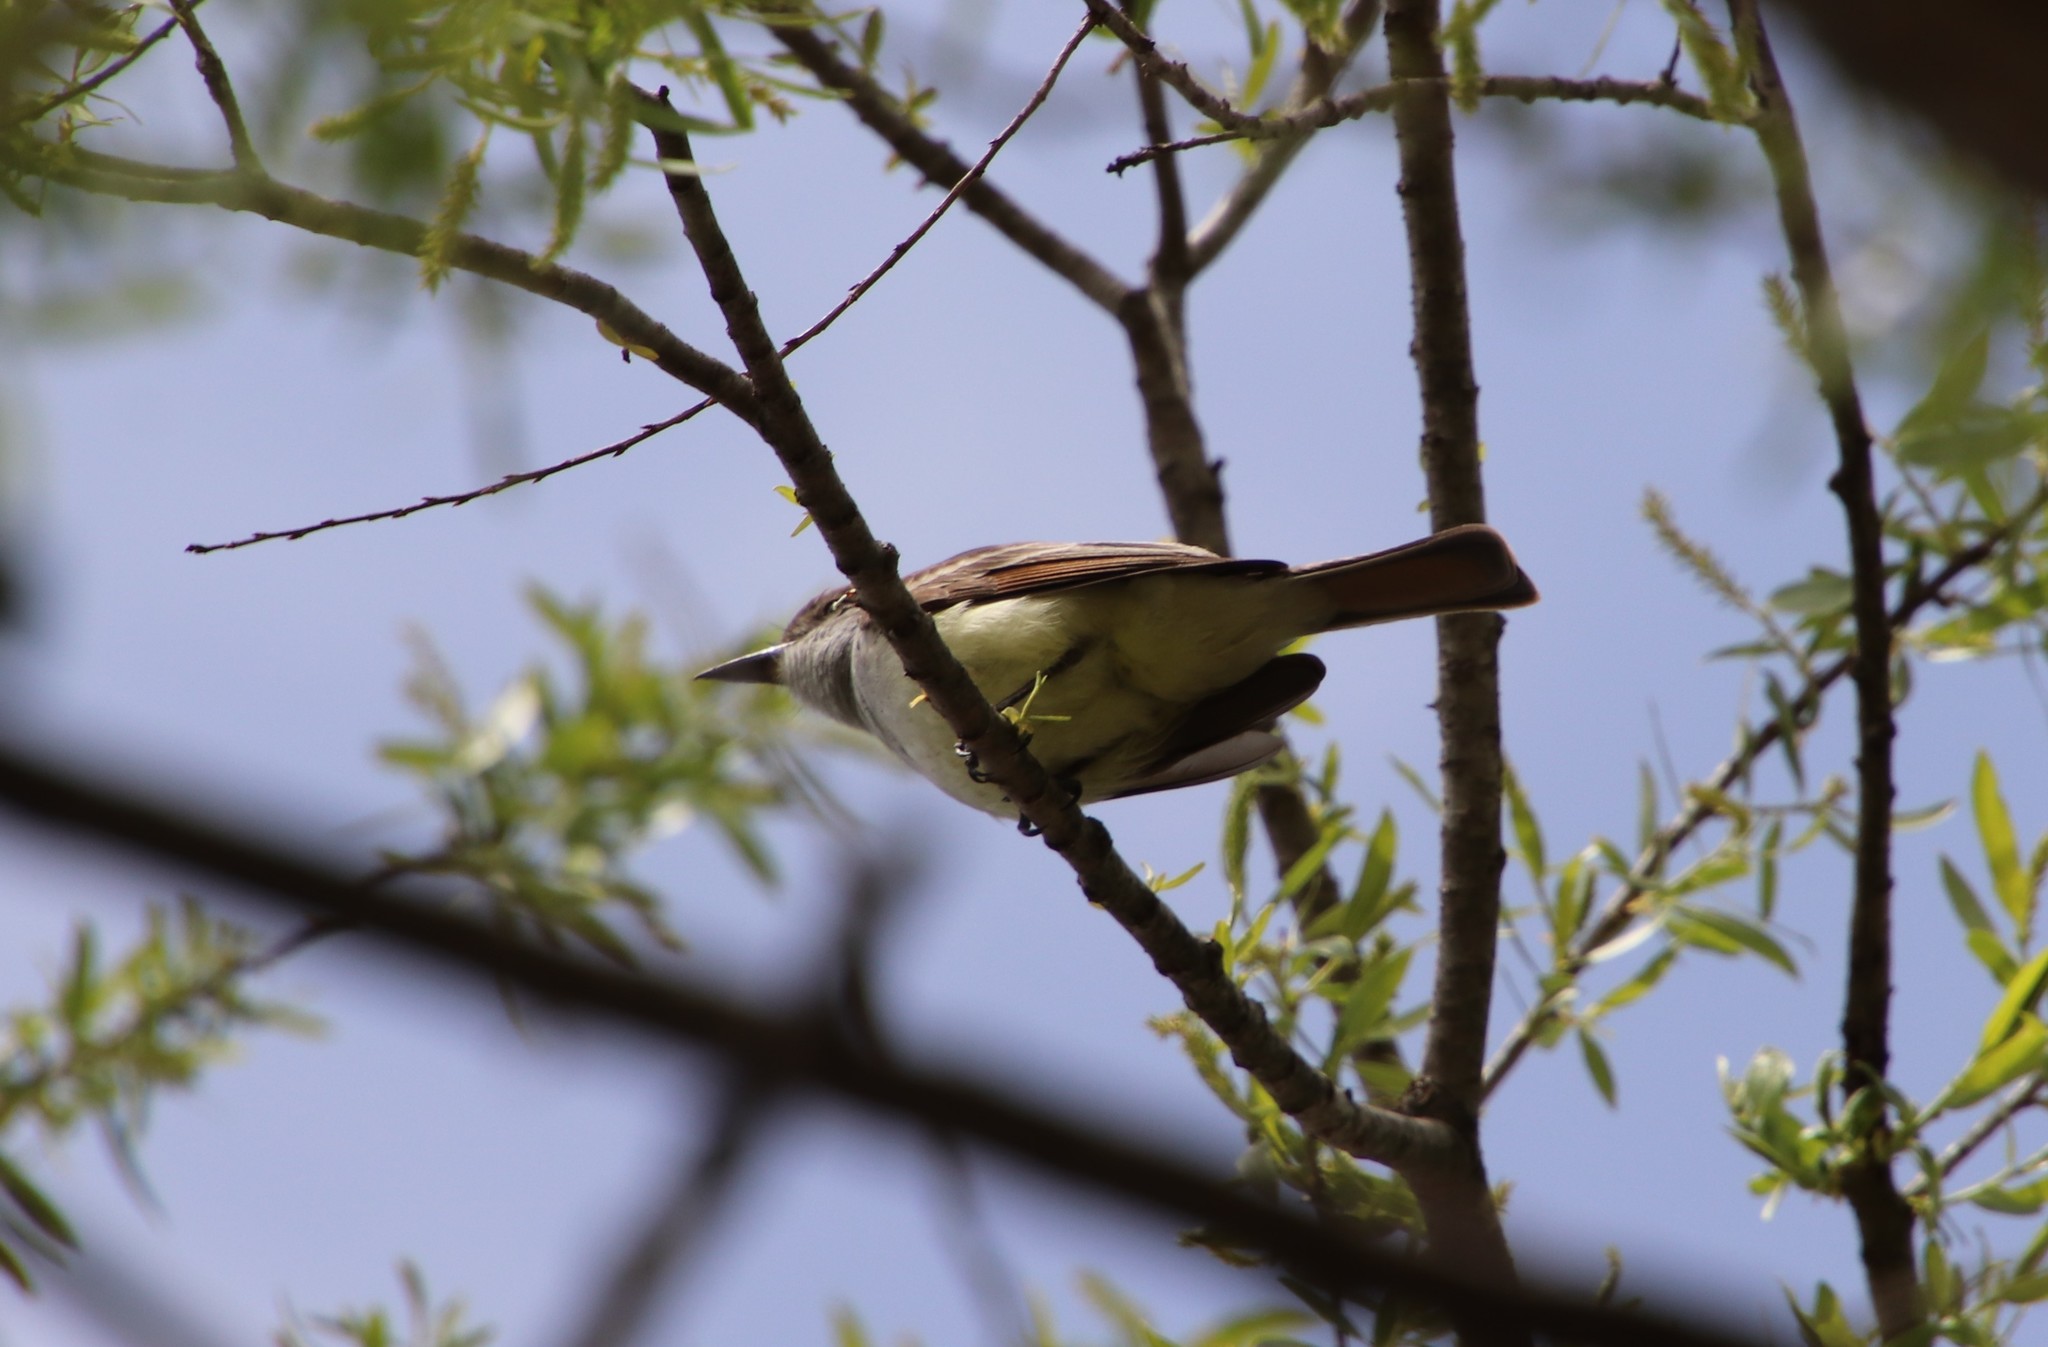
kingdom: Animalia
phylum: Chordata
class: Aves
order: Passeriformes
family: Tyrannidae
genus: Myiarchus
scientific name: Myiarchus cinerascens
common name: Ash-throated flycatcher
